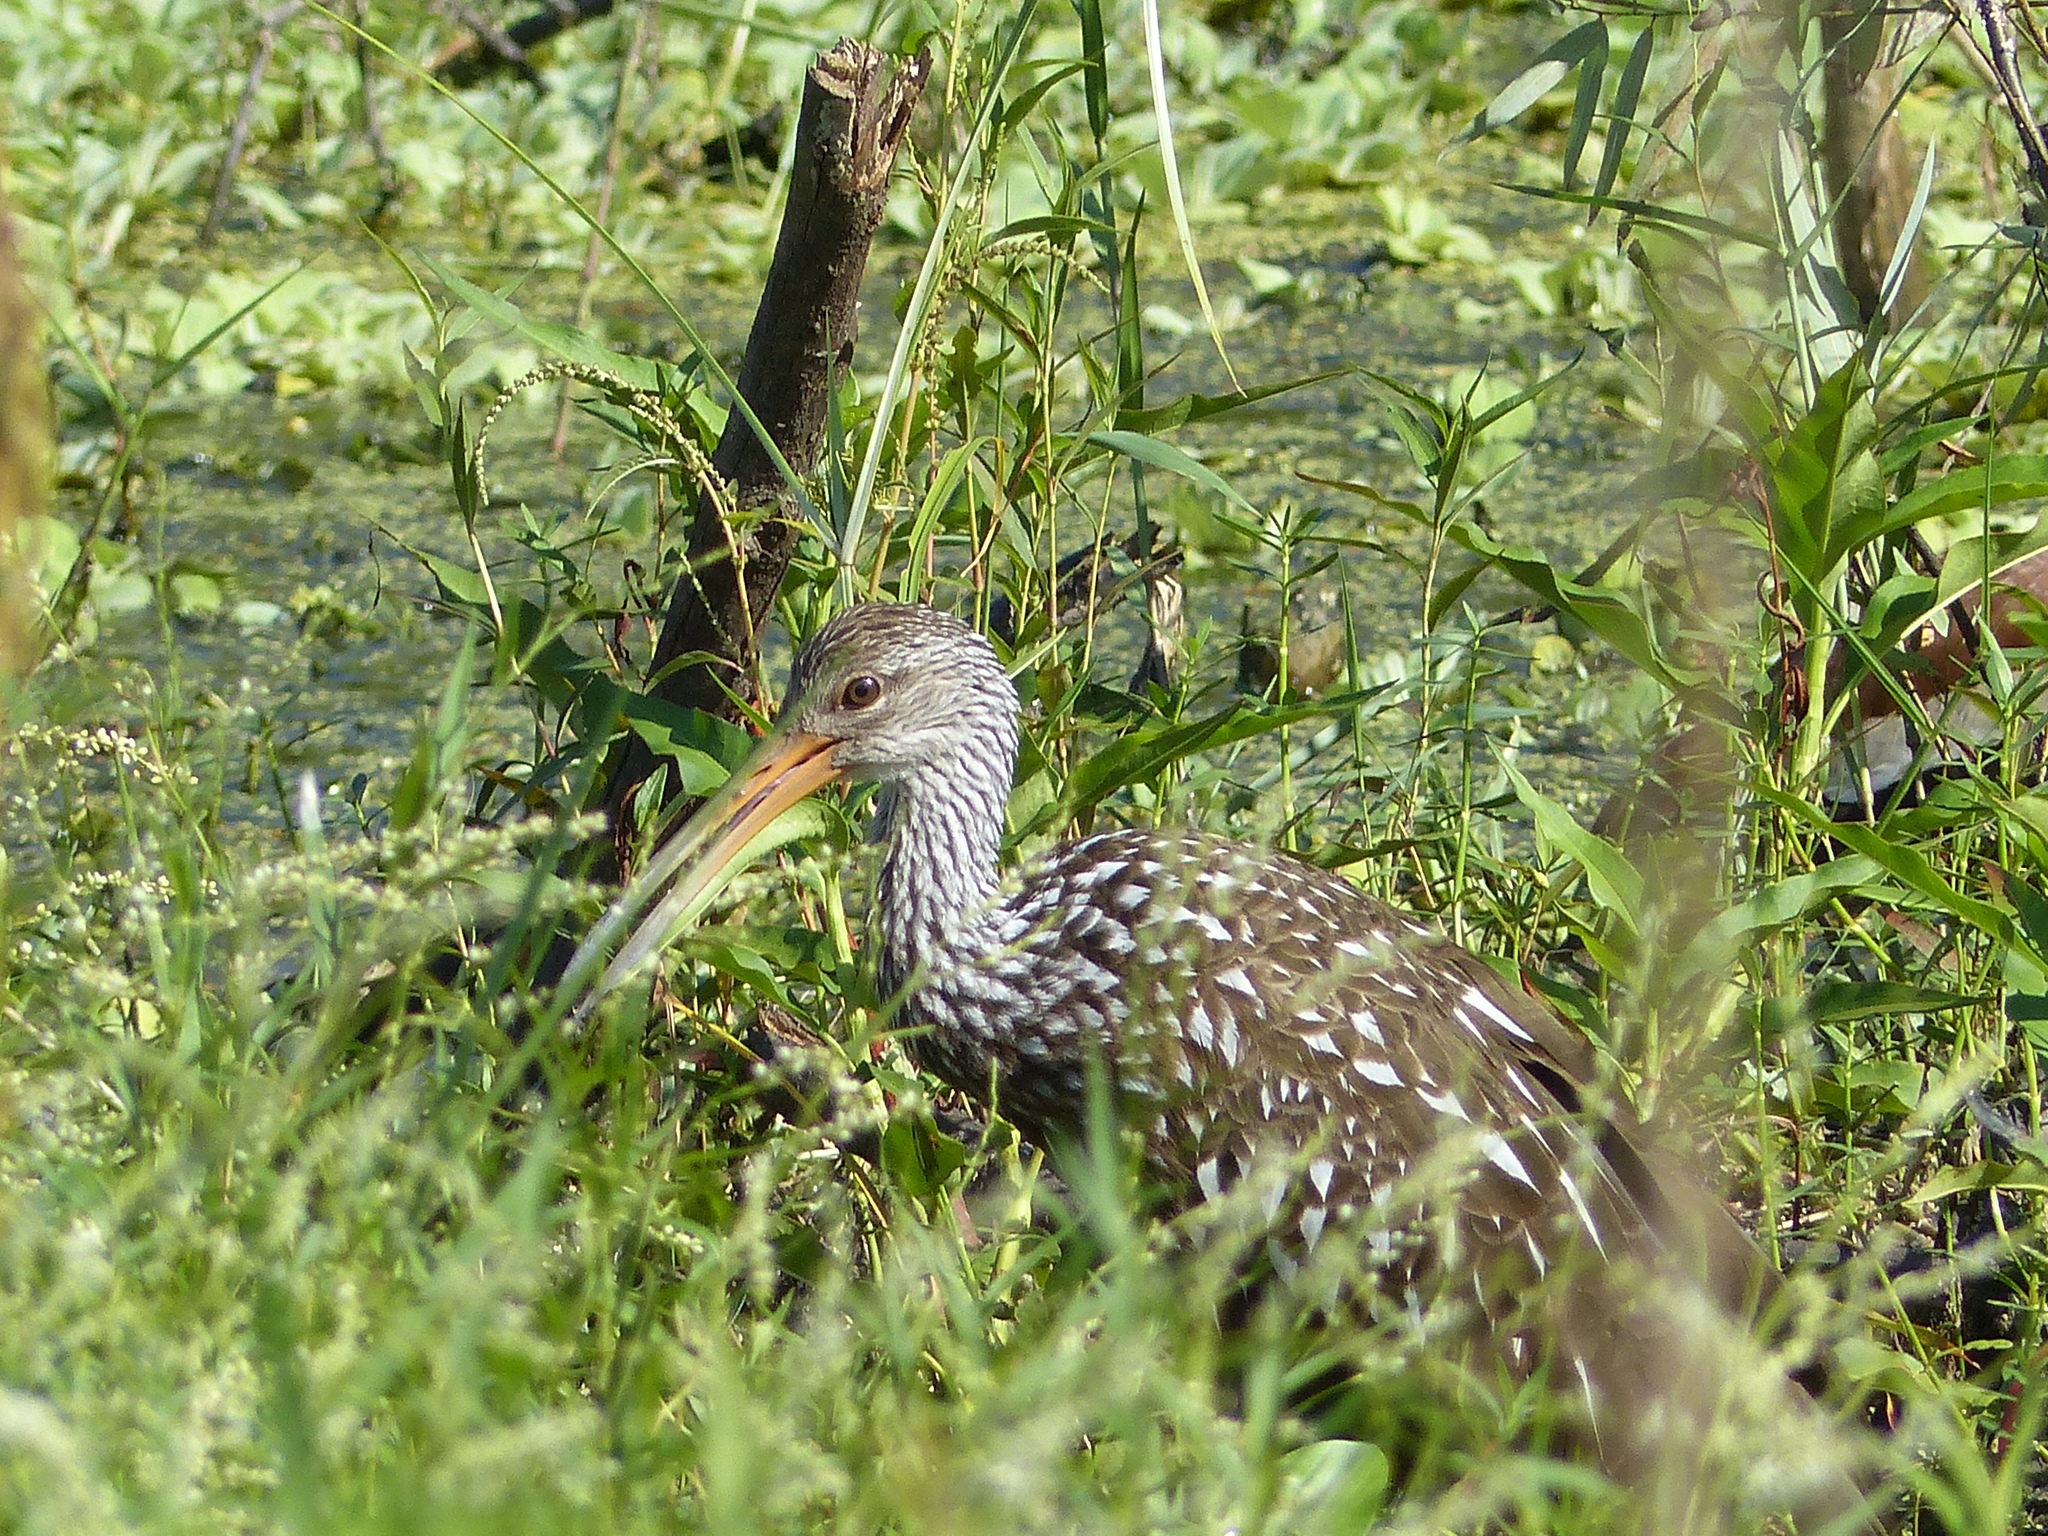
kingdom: Animalia
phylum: Chordata
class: Aves
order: Gruiformes
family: Aramidae
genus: Aramus
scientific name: Aramus guarauna
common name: Limpkin
